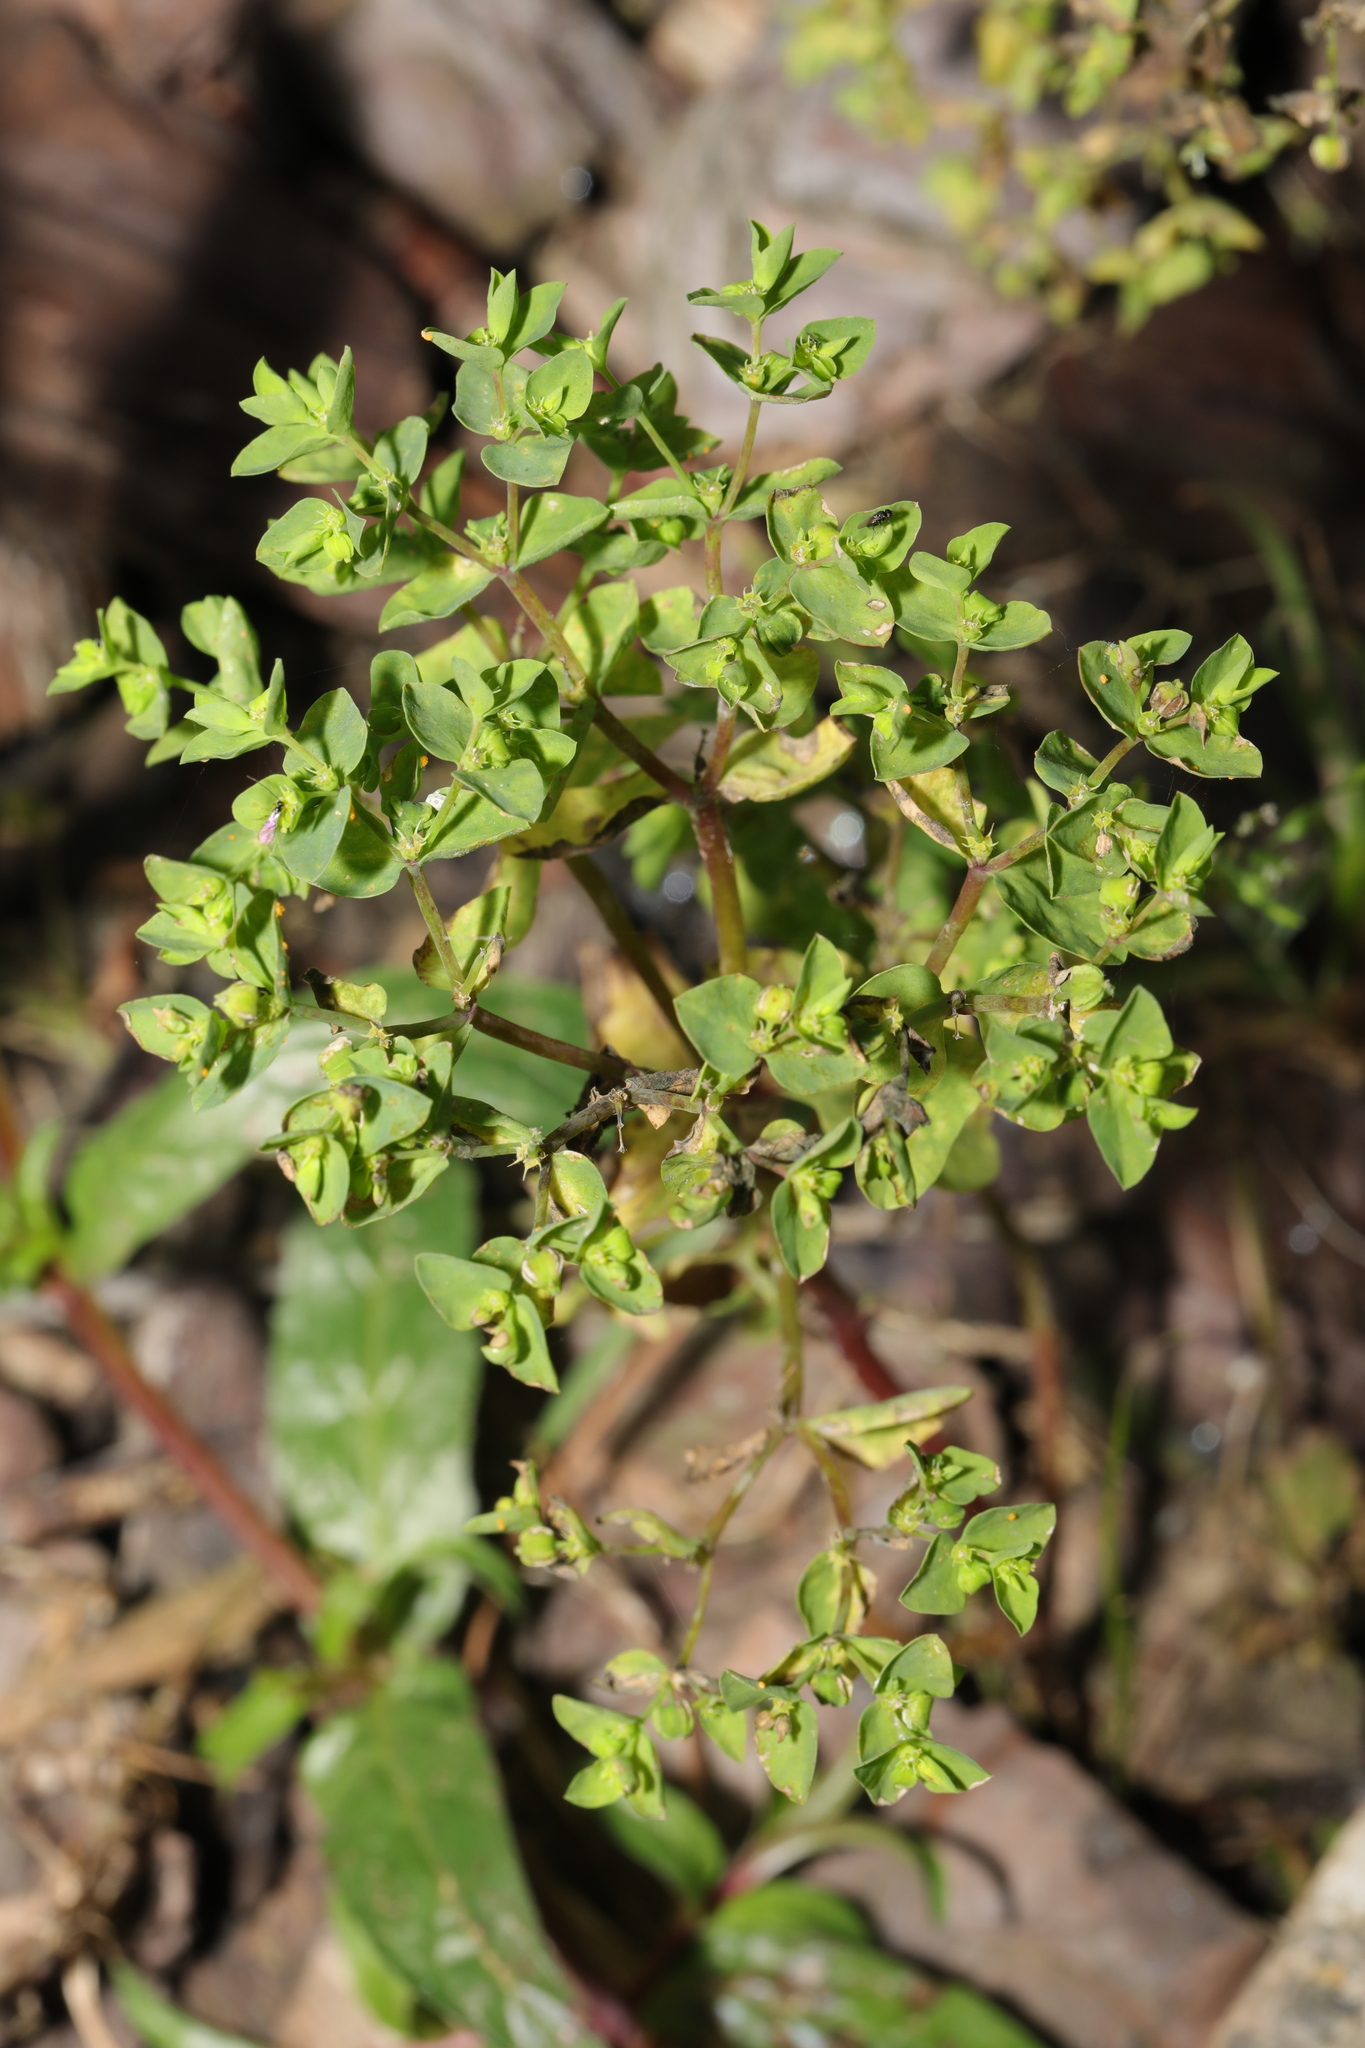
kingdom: Plantae
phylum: Tracheophyta
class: Magnoliopsida
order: Malpighiales
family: Euphorbiaceae
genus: Euphorbia
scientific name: Euphorbia peplus
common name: Petty spurge
